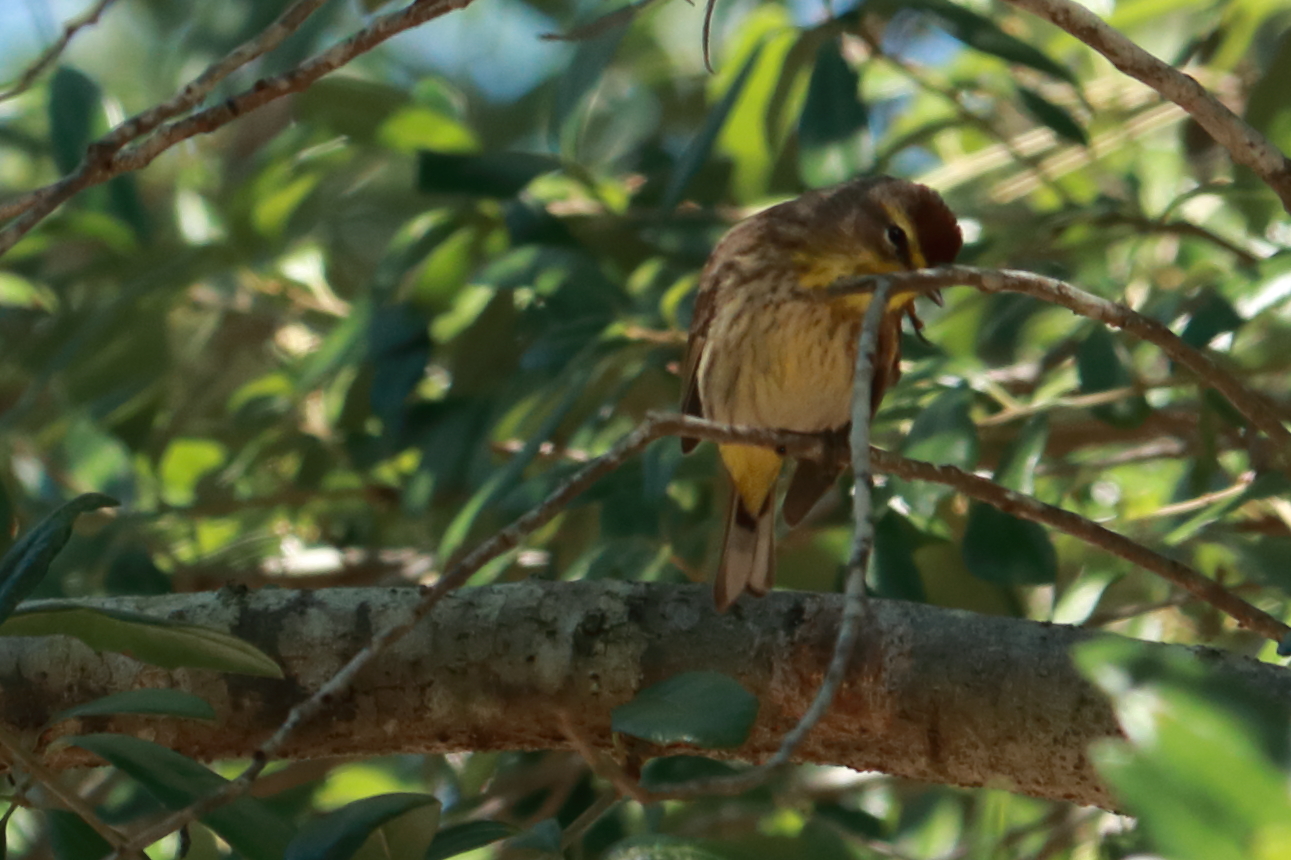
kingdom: Animalia
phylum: Chordata
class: Aves
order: Passeriformes
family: Parulidae
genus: Setophaga
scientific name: Setophaga palmarum
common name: Palm warbler
